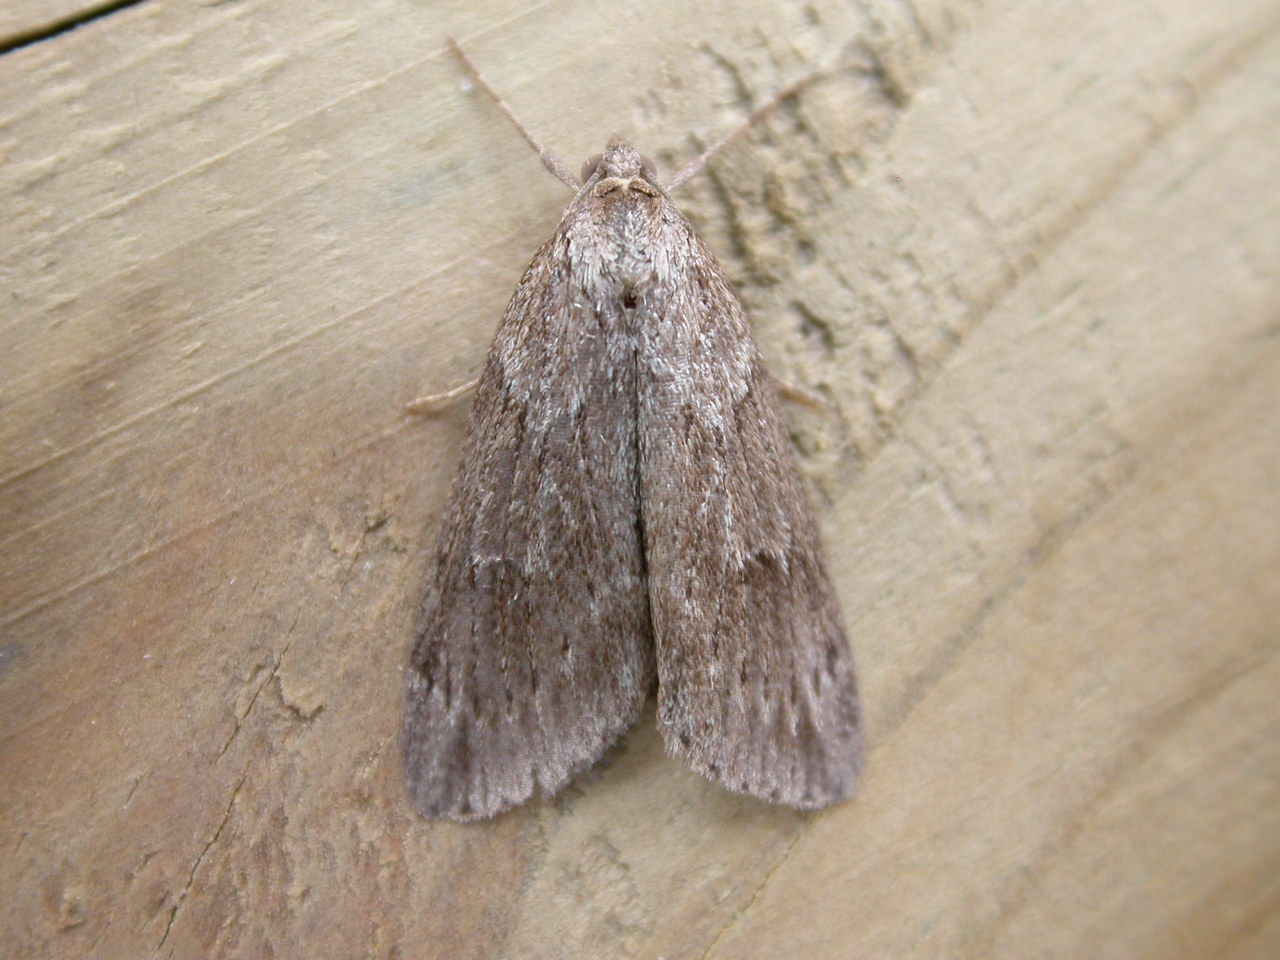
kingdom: Animalia
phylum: Arthropoda
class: Insecta
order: Lepidoptera
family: Geometridae
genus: Pachycnemia
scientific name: Pachycnemia hippocastanaria
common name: Horse chestnut
